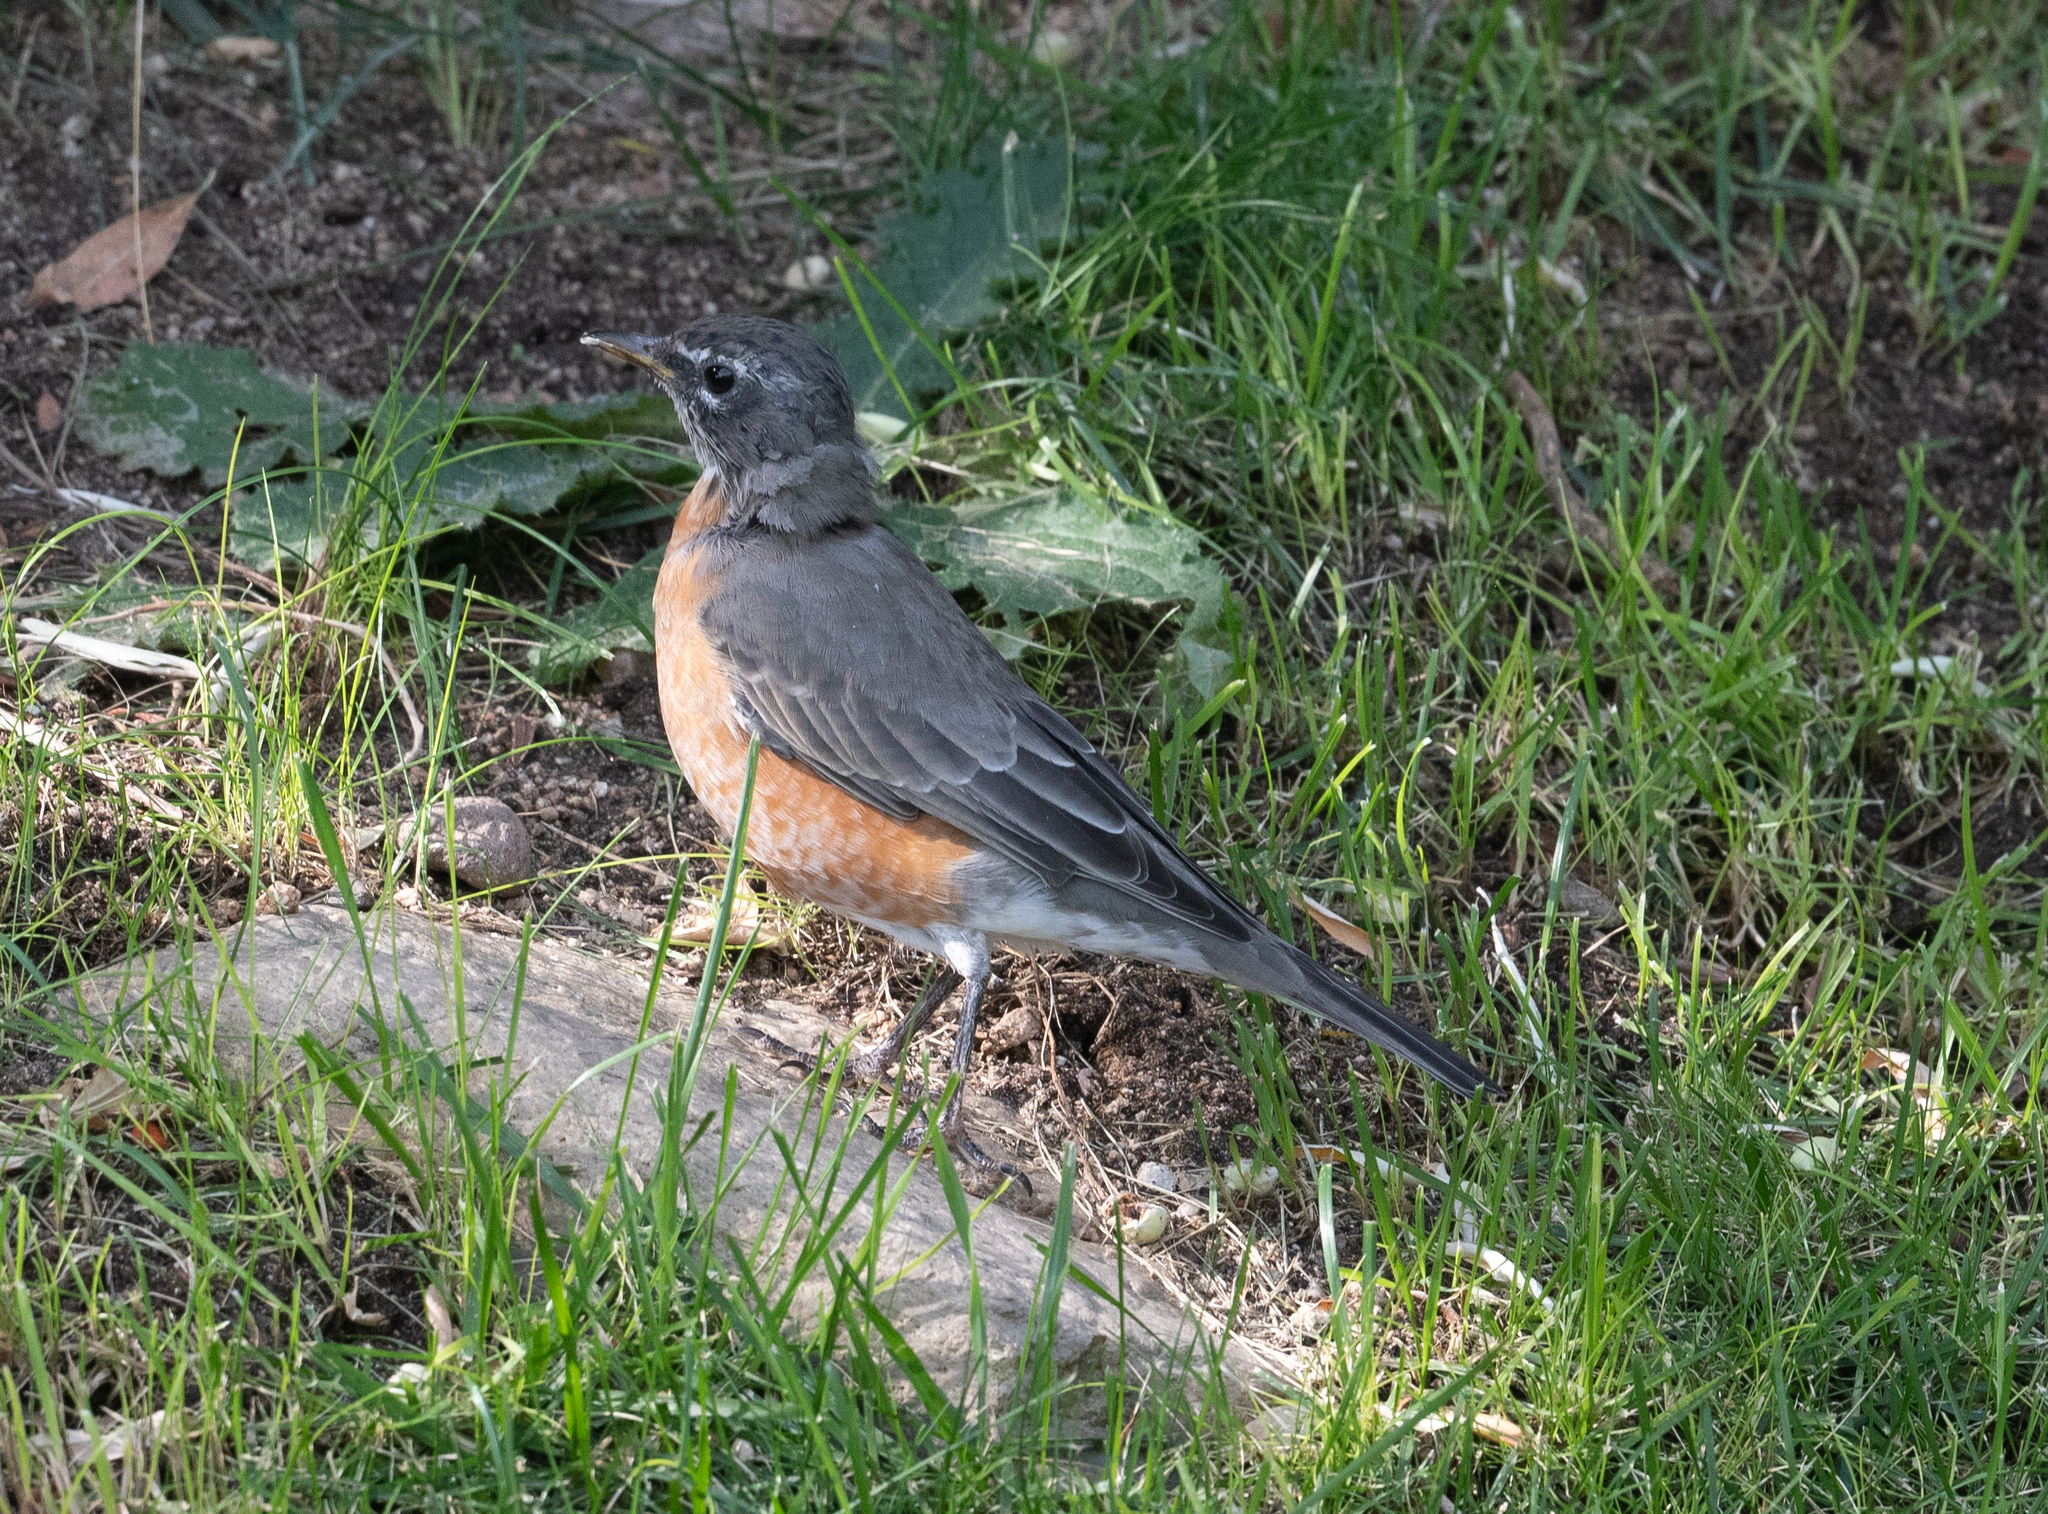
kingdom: Animalia
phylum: Chordata
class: Aves
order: Passeriformes
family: Turdidae
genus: Turdus
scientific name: Turdus migratorius
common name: American robin
